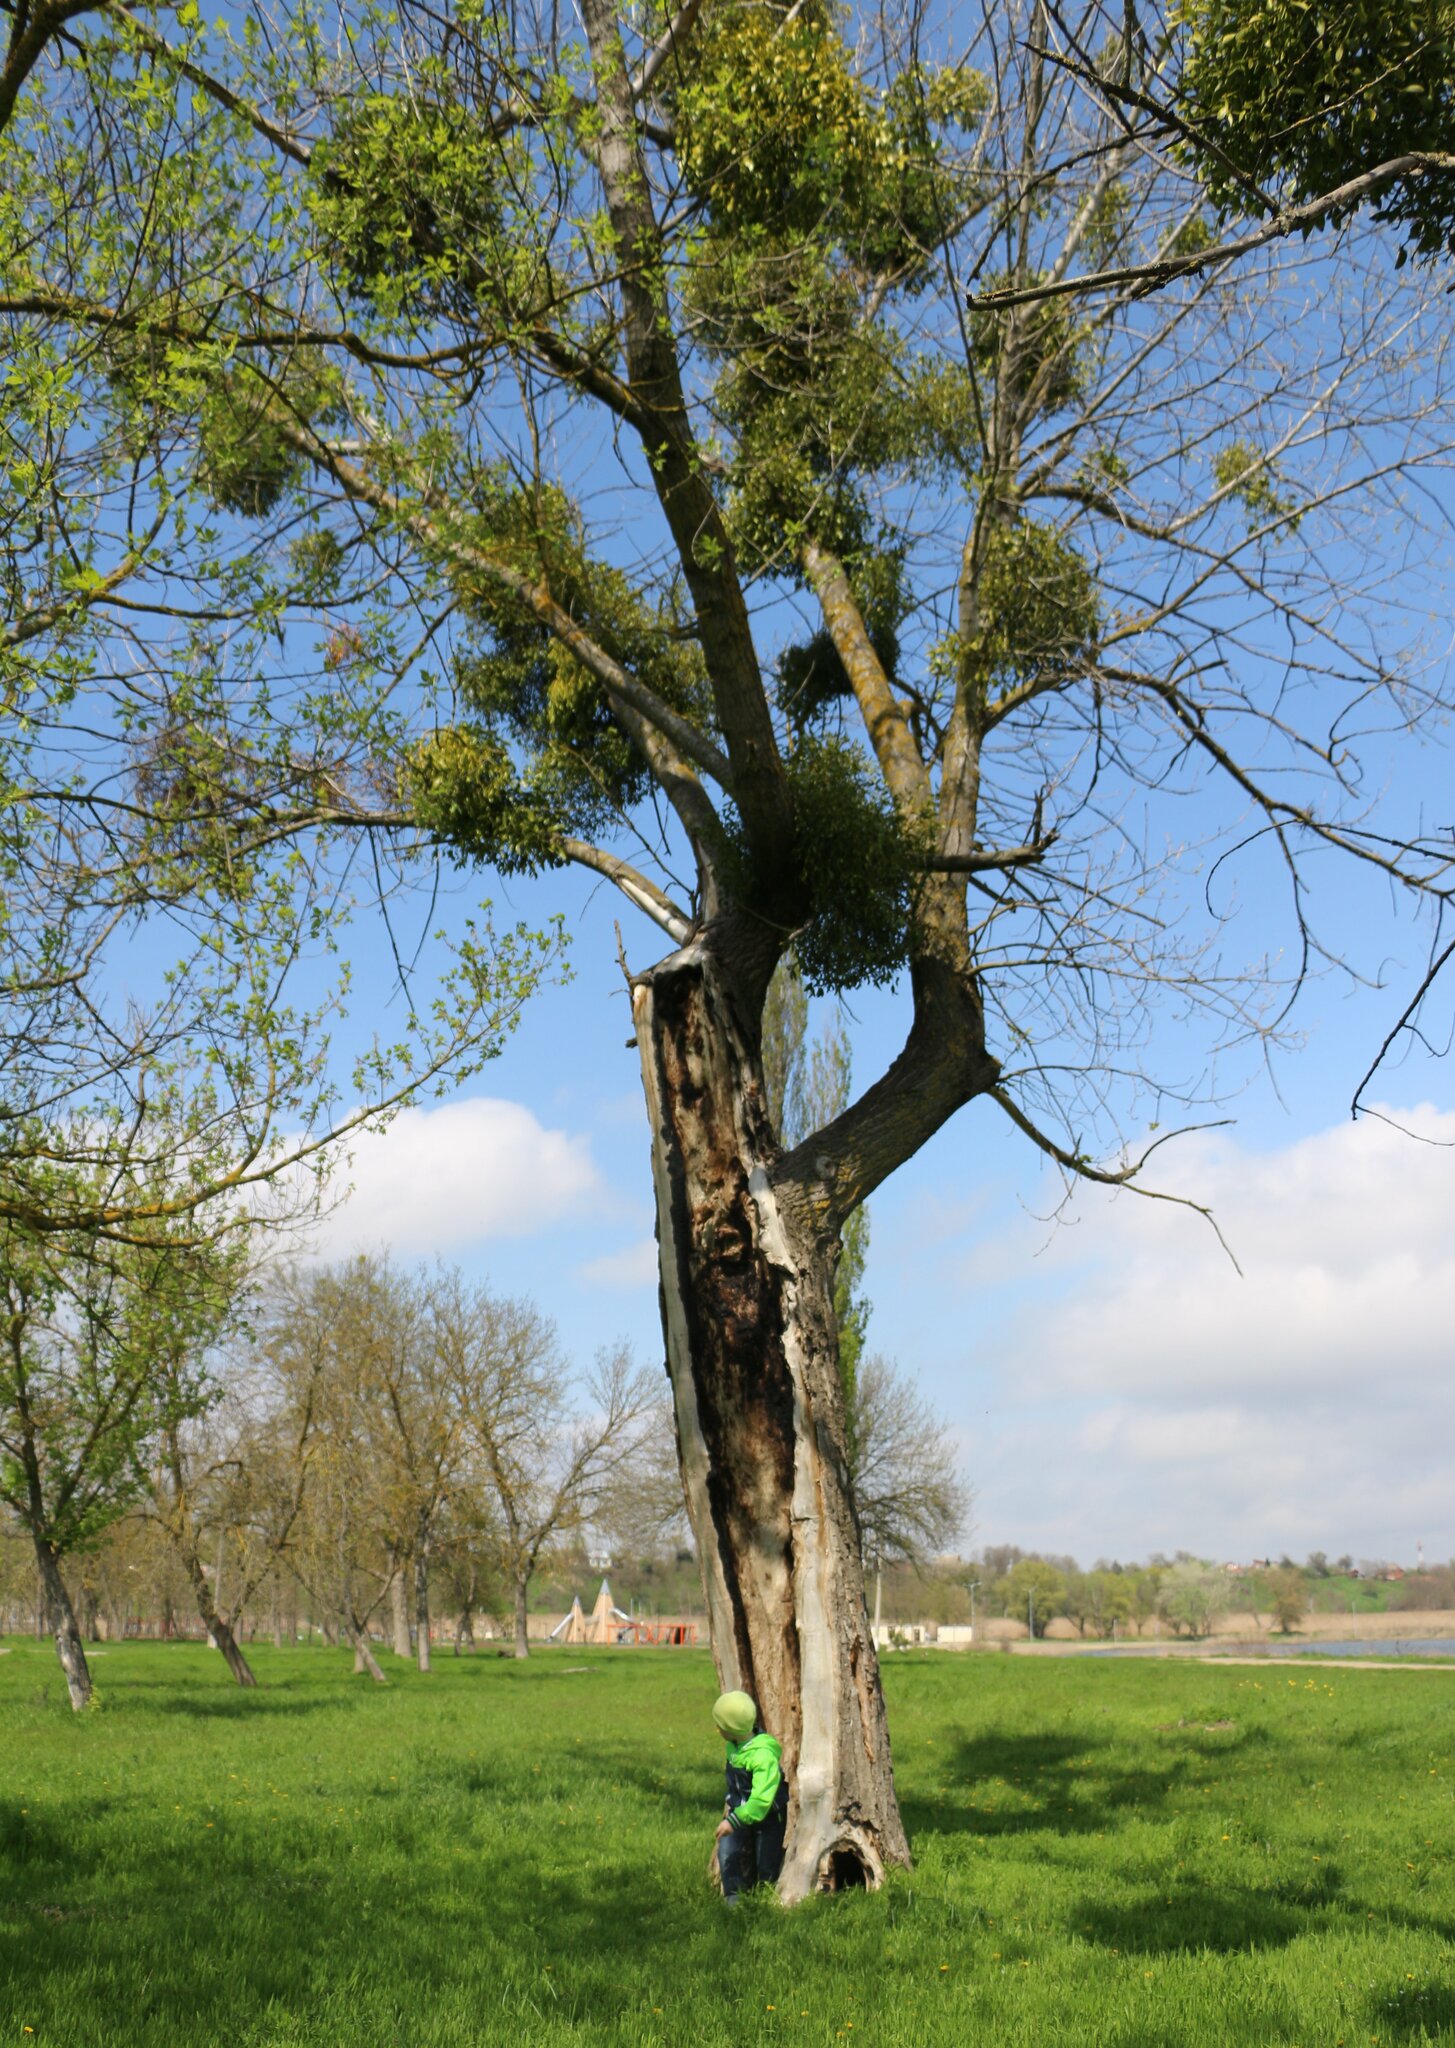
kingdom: Plantae
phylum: Tracheophyta
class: Magnoliopsida
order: Santalales
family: Viscaceae
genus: Viscum
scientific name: Viscum album
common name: Mistletoe
